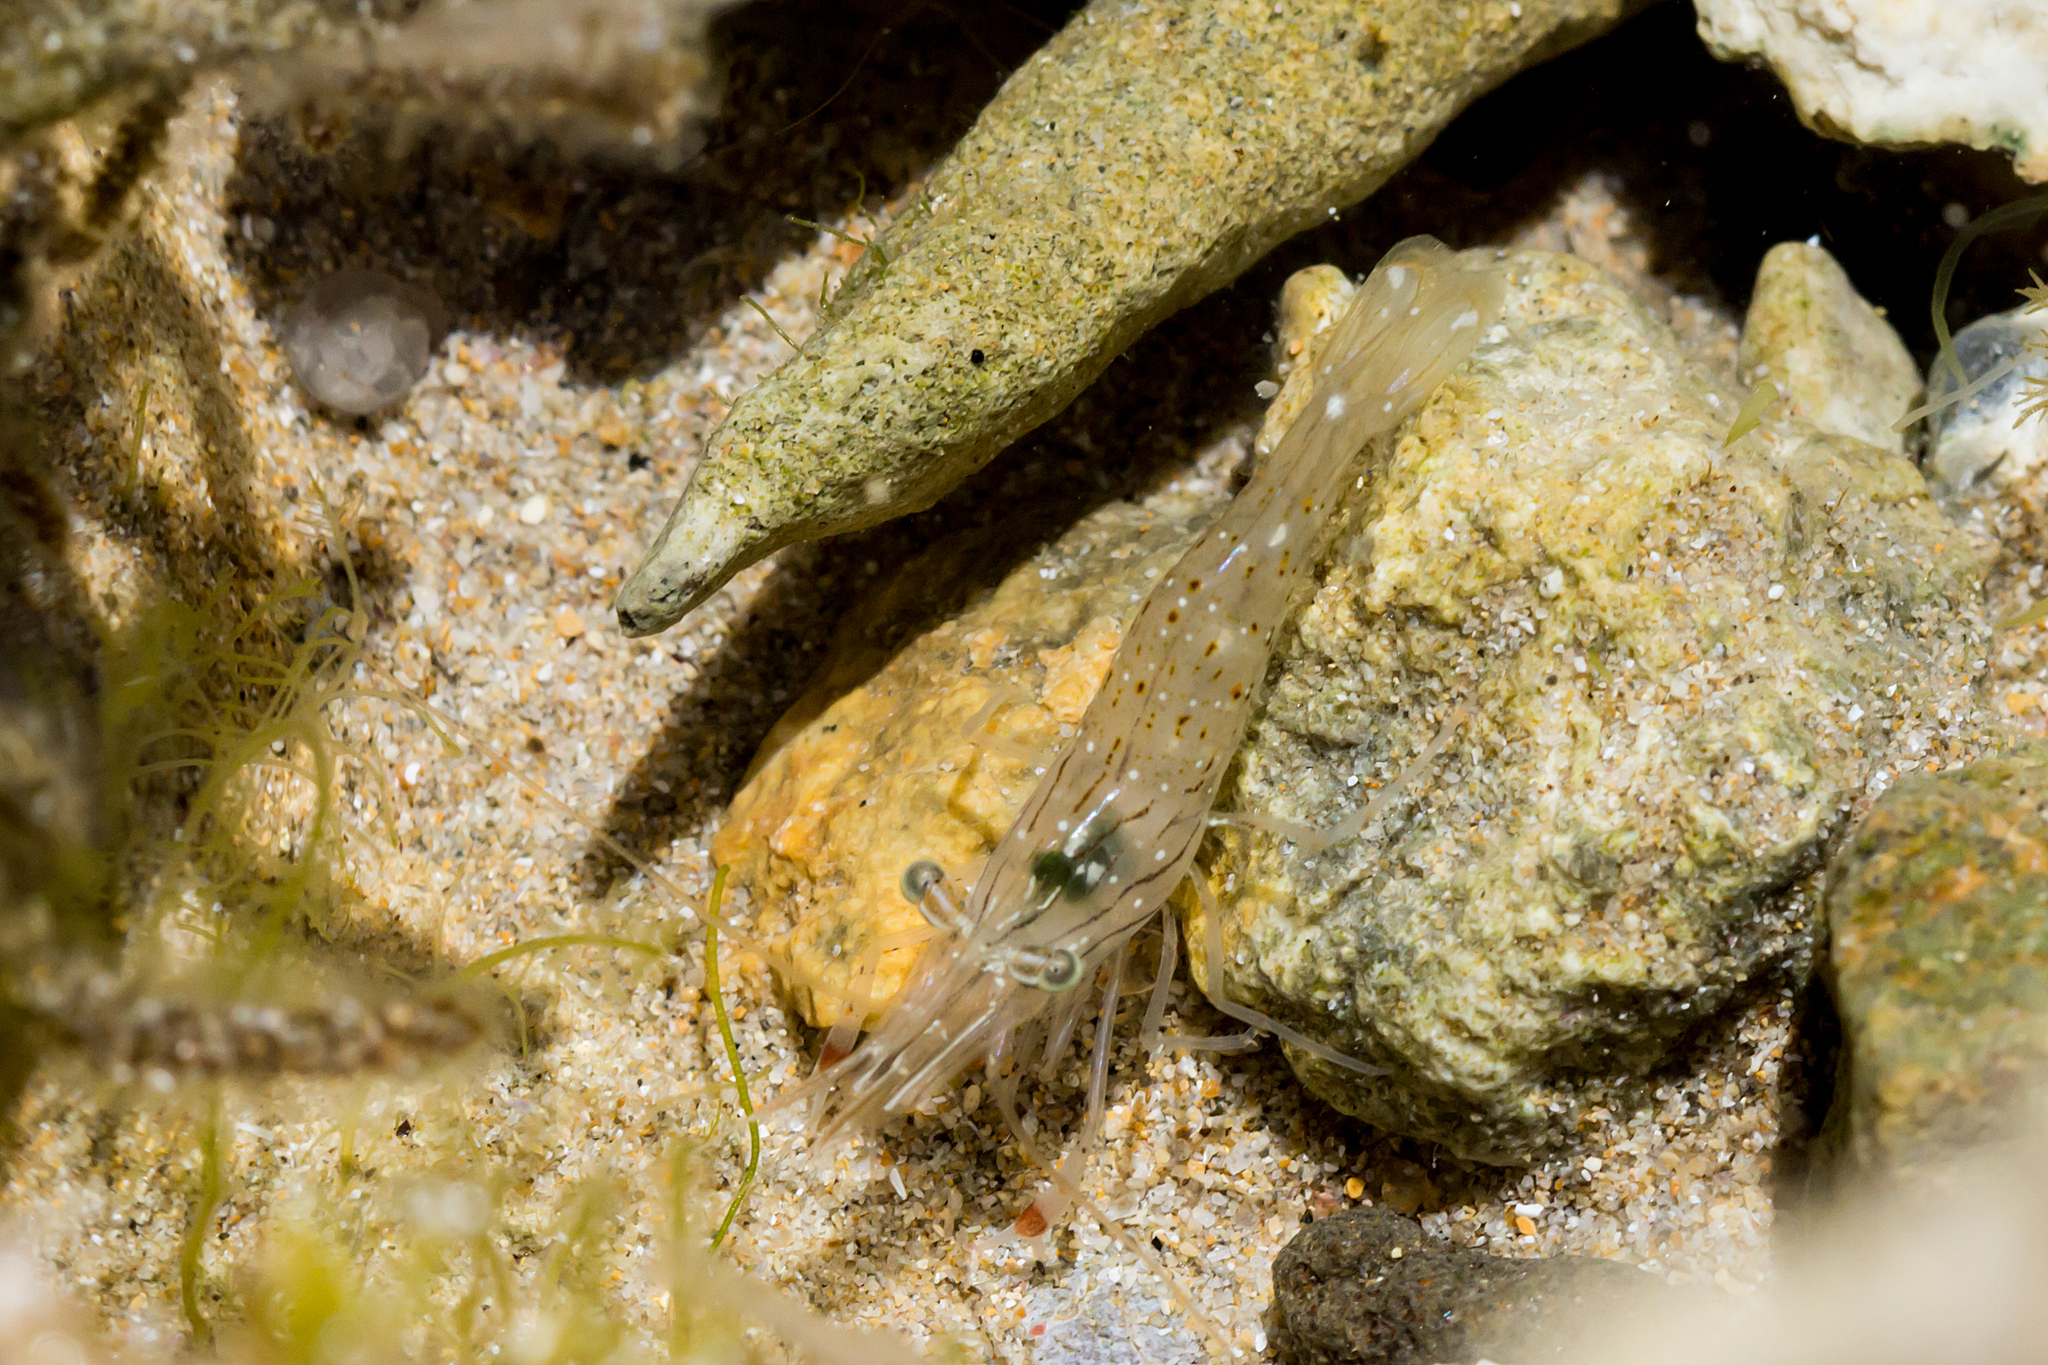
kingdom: Animalia
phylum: Arthropoda
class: Malacostraca
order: Decapoda
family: Palaemonidae
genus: Palaemon
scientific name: Palaemon serenus
